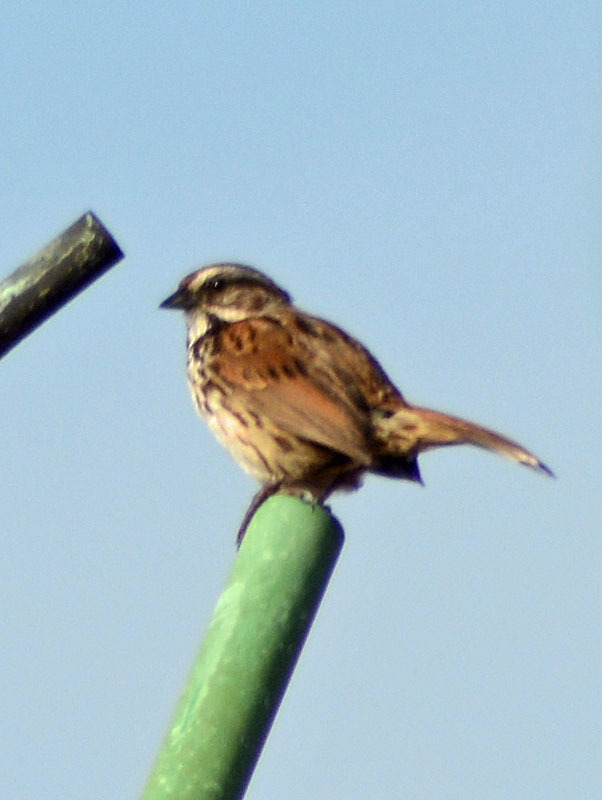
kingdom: Animalia
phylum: Chordata
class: Aves
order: Passeriformes
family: Passerellidae
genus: Melospiza
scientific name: Melospiza melodia
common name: Song sparrow
